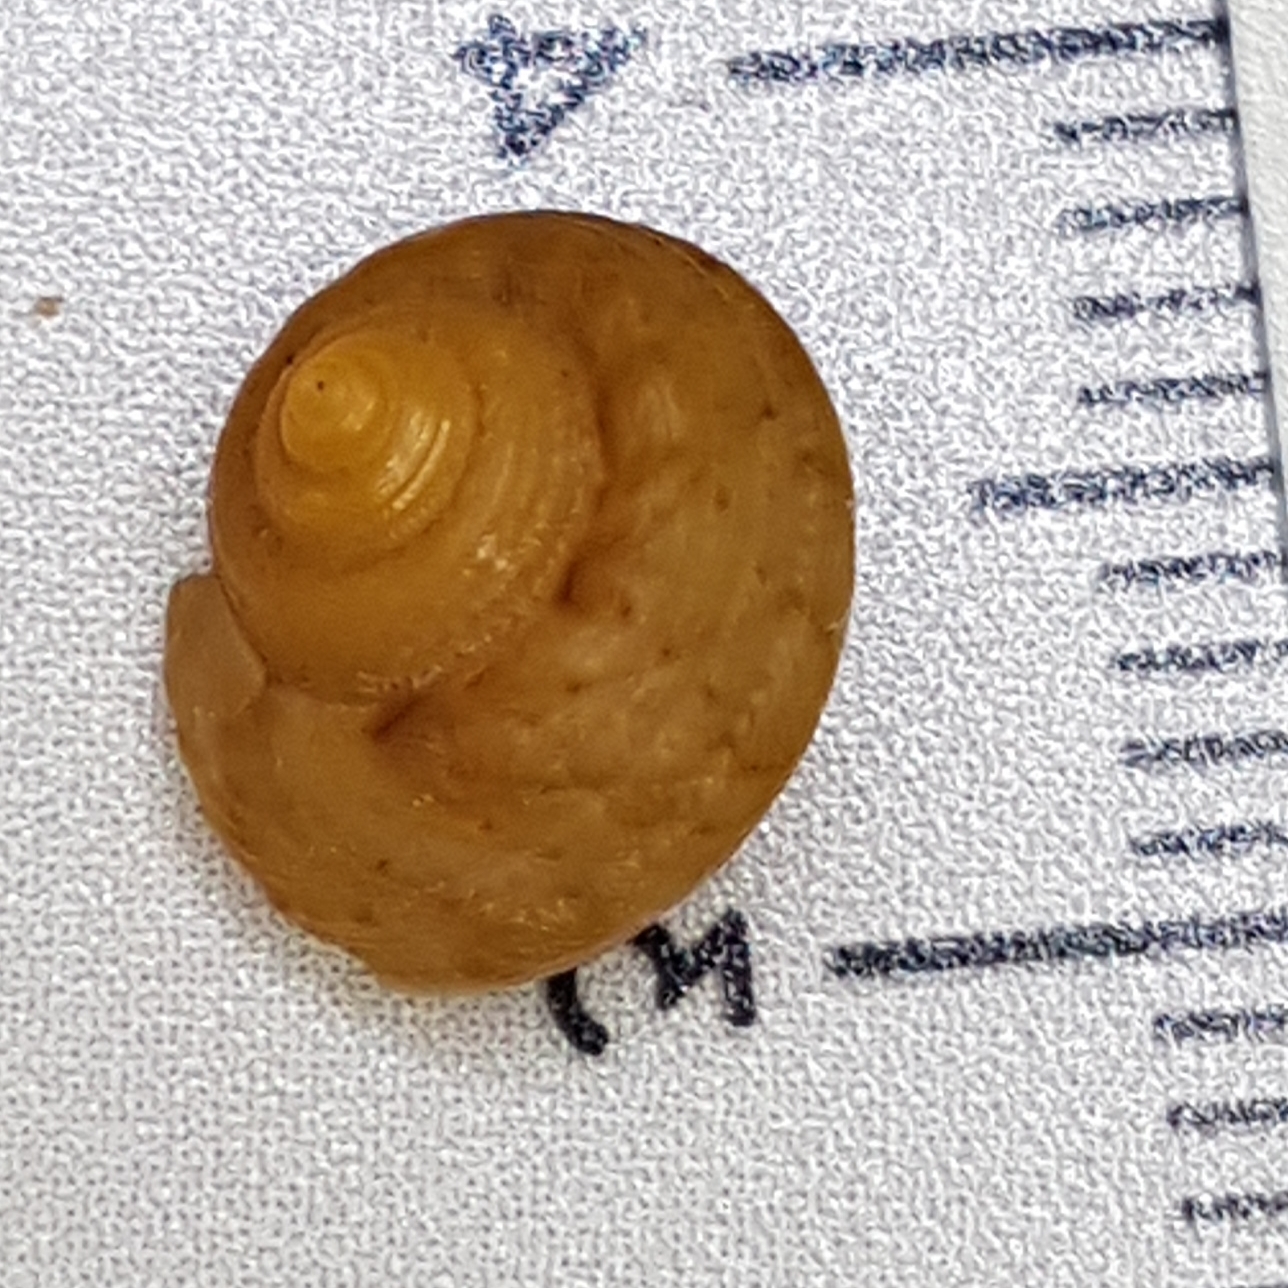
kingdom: Animalia
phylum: Mollusca
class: Gastropoda
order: Trochida
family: Trochidae
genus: Gibbula
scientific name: Gibbula ardens
